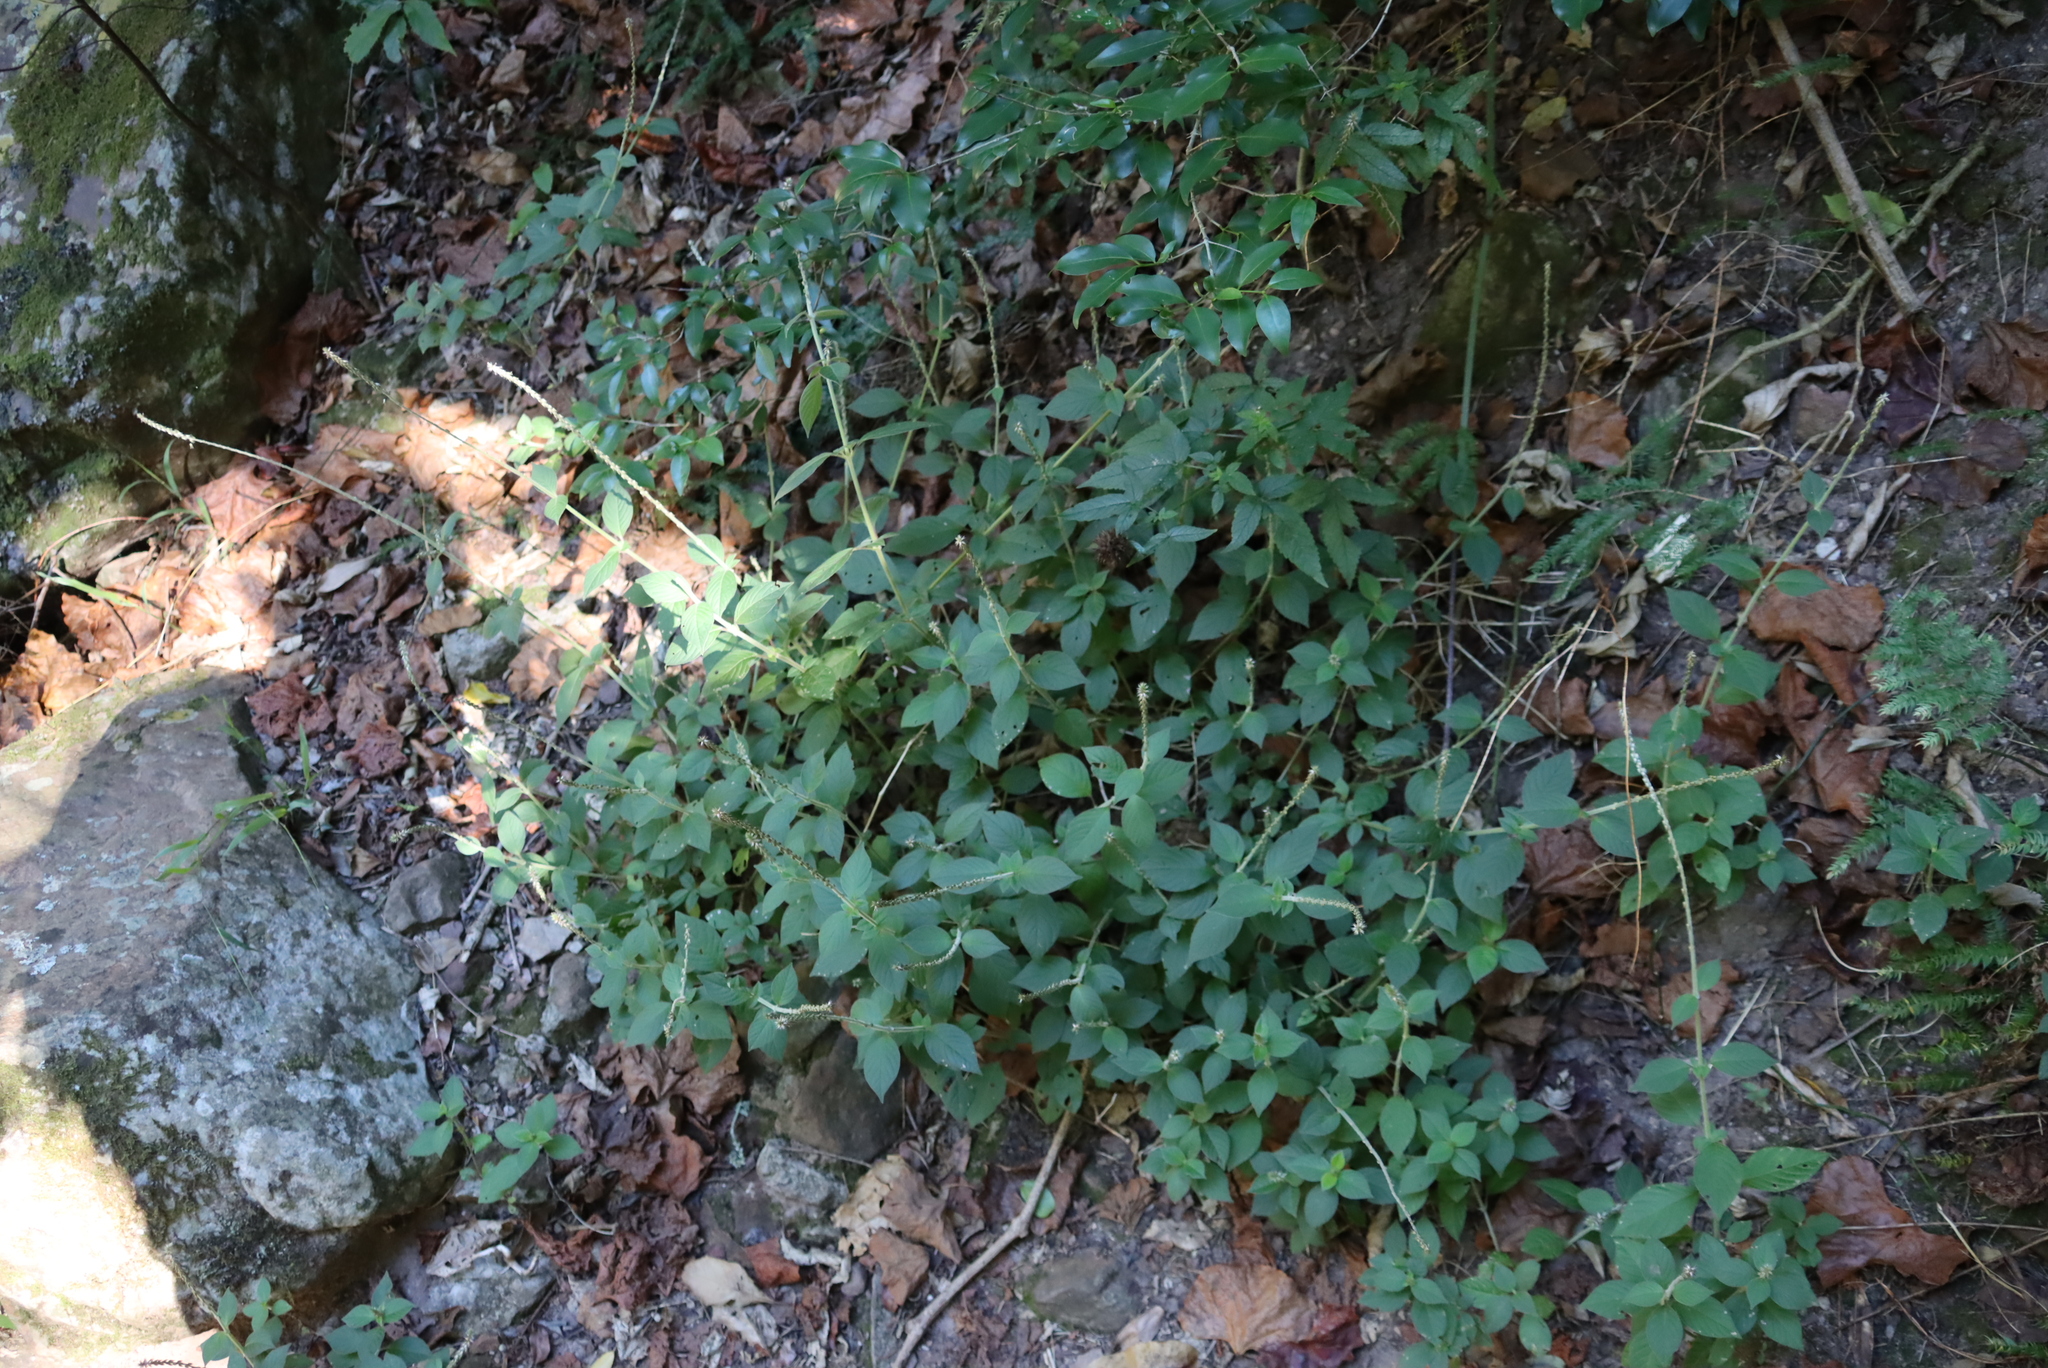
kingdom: Plantae
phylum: Tracheophyta
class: Magnoliopsida
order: Caryophyllales
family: Amaranthaceae
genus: Achyranthes
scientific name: Achyranthes aspera
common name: Devil's horsewhip
